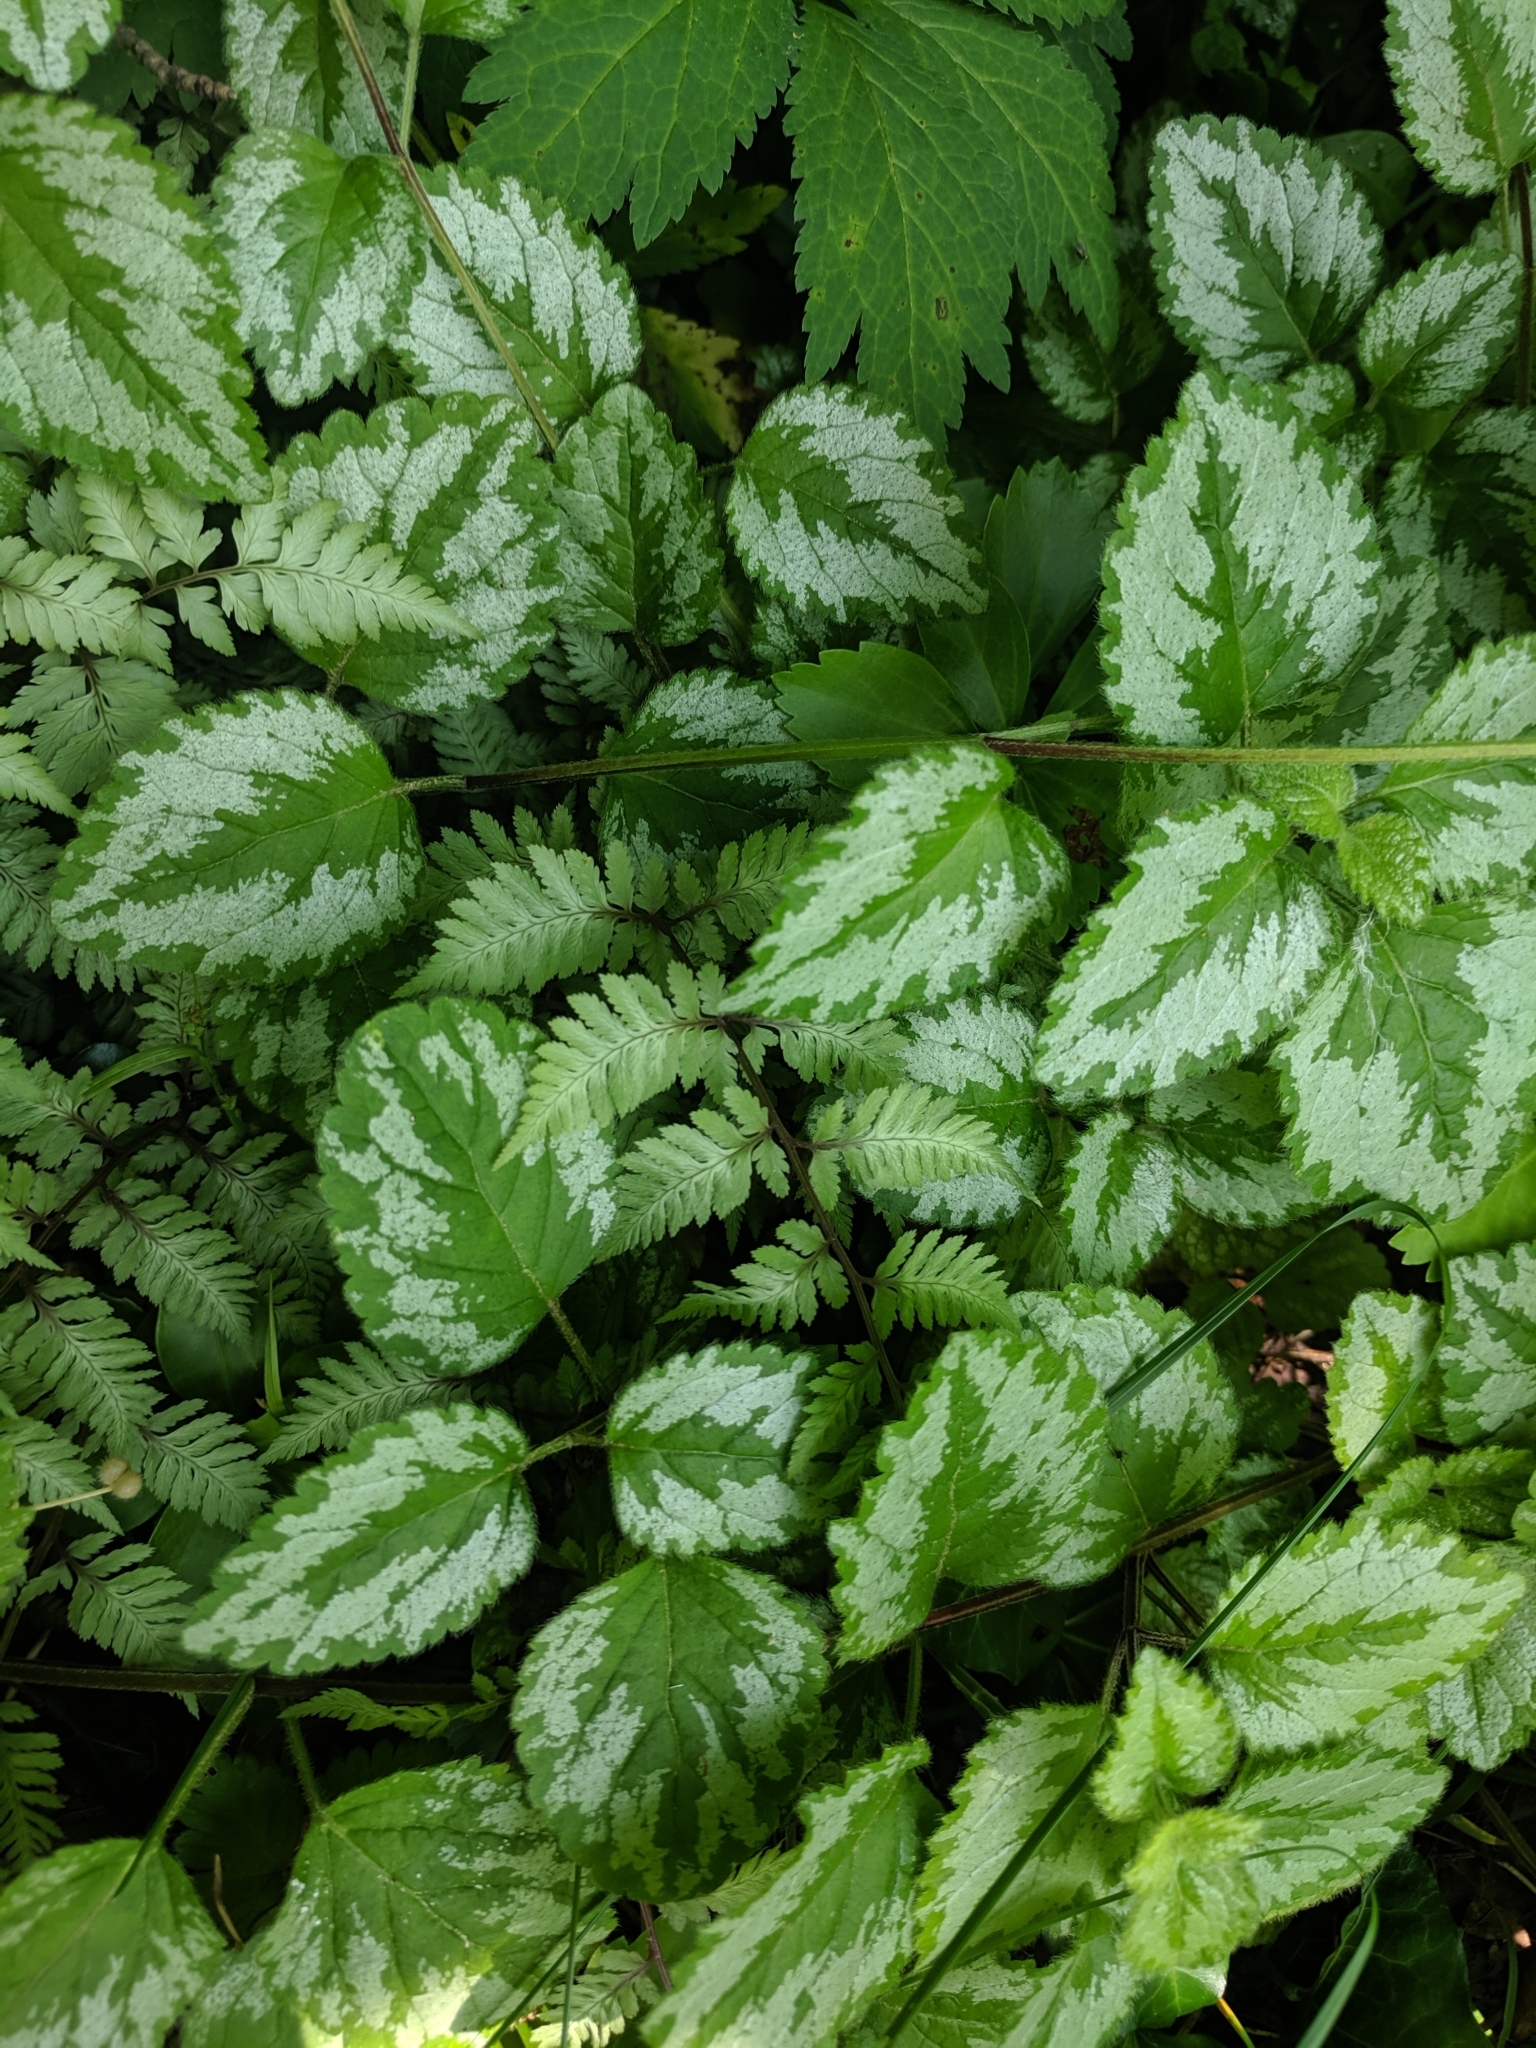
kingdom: Plantae
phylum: Tracheophyta
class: Magnoliopsida
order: Lamiales
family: Lamiaceae
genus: Lamium
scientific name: Lamium galeobdolon
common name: Yellow archangel
